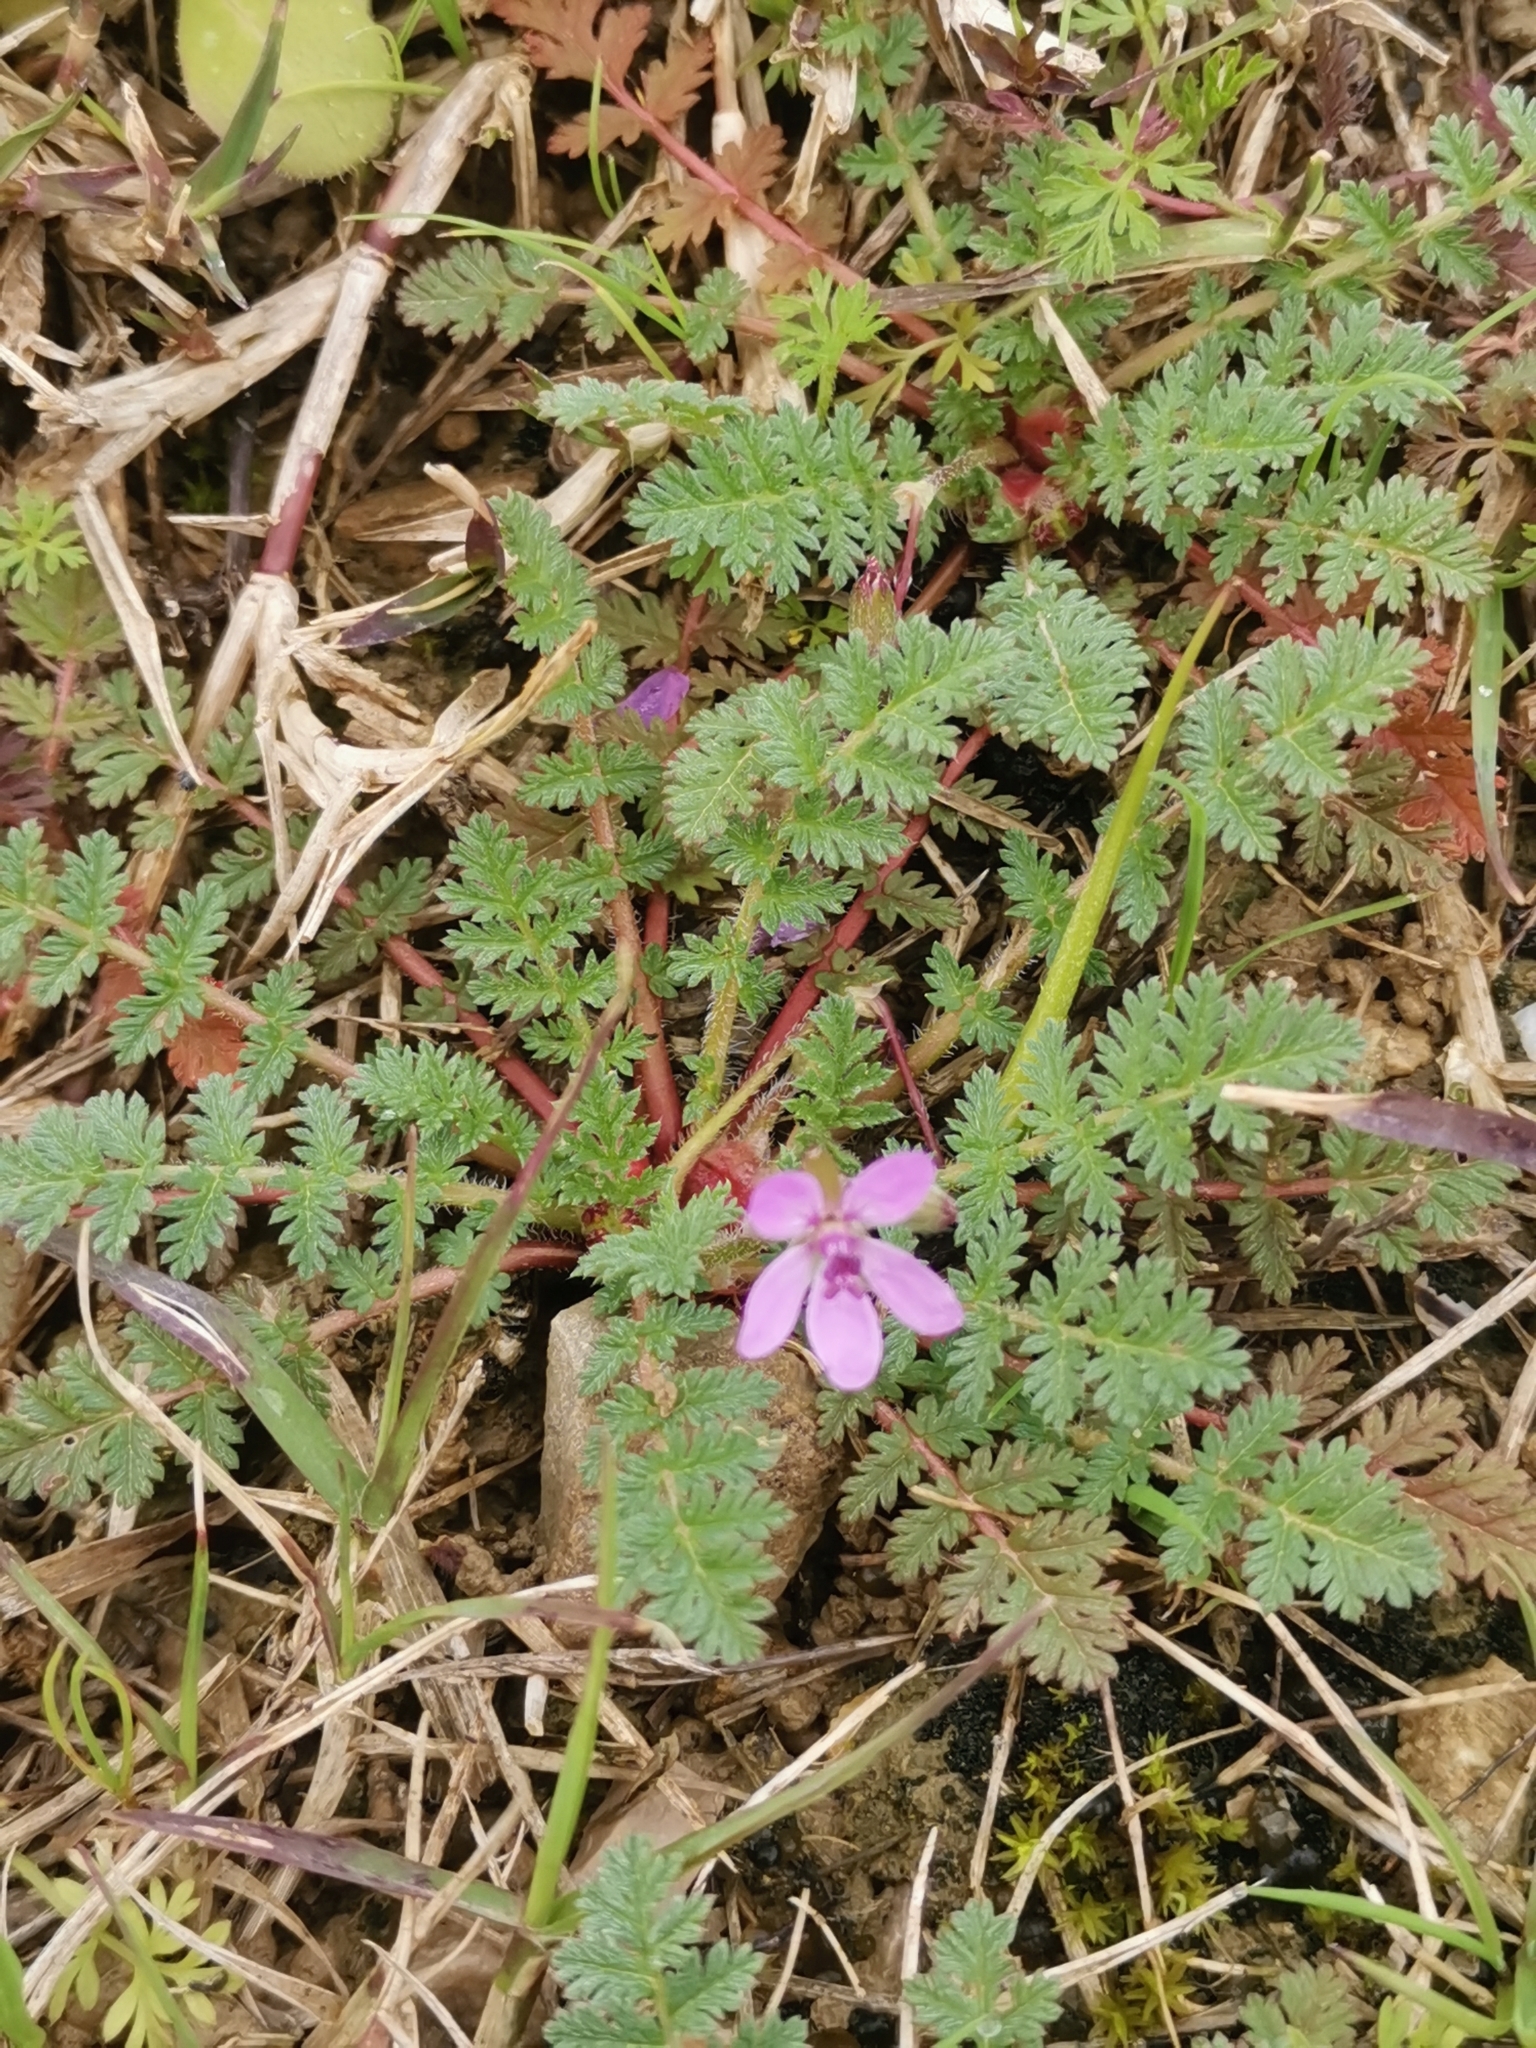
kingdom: Plantae
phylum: Tracheophyta
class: Magnoliopsida
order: Geraniales
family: Geraniaceae
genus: Erodium
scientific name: Erodium cicutarium
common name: Common stork's-bill
